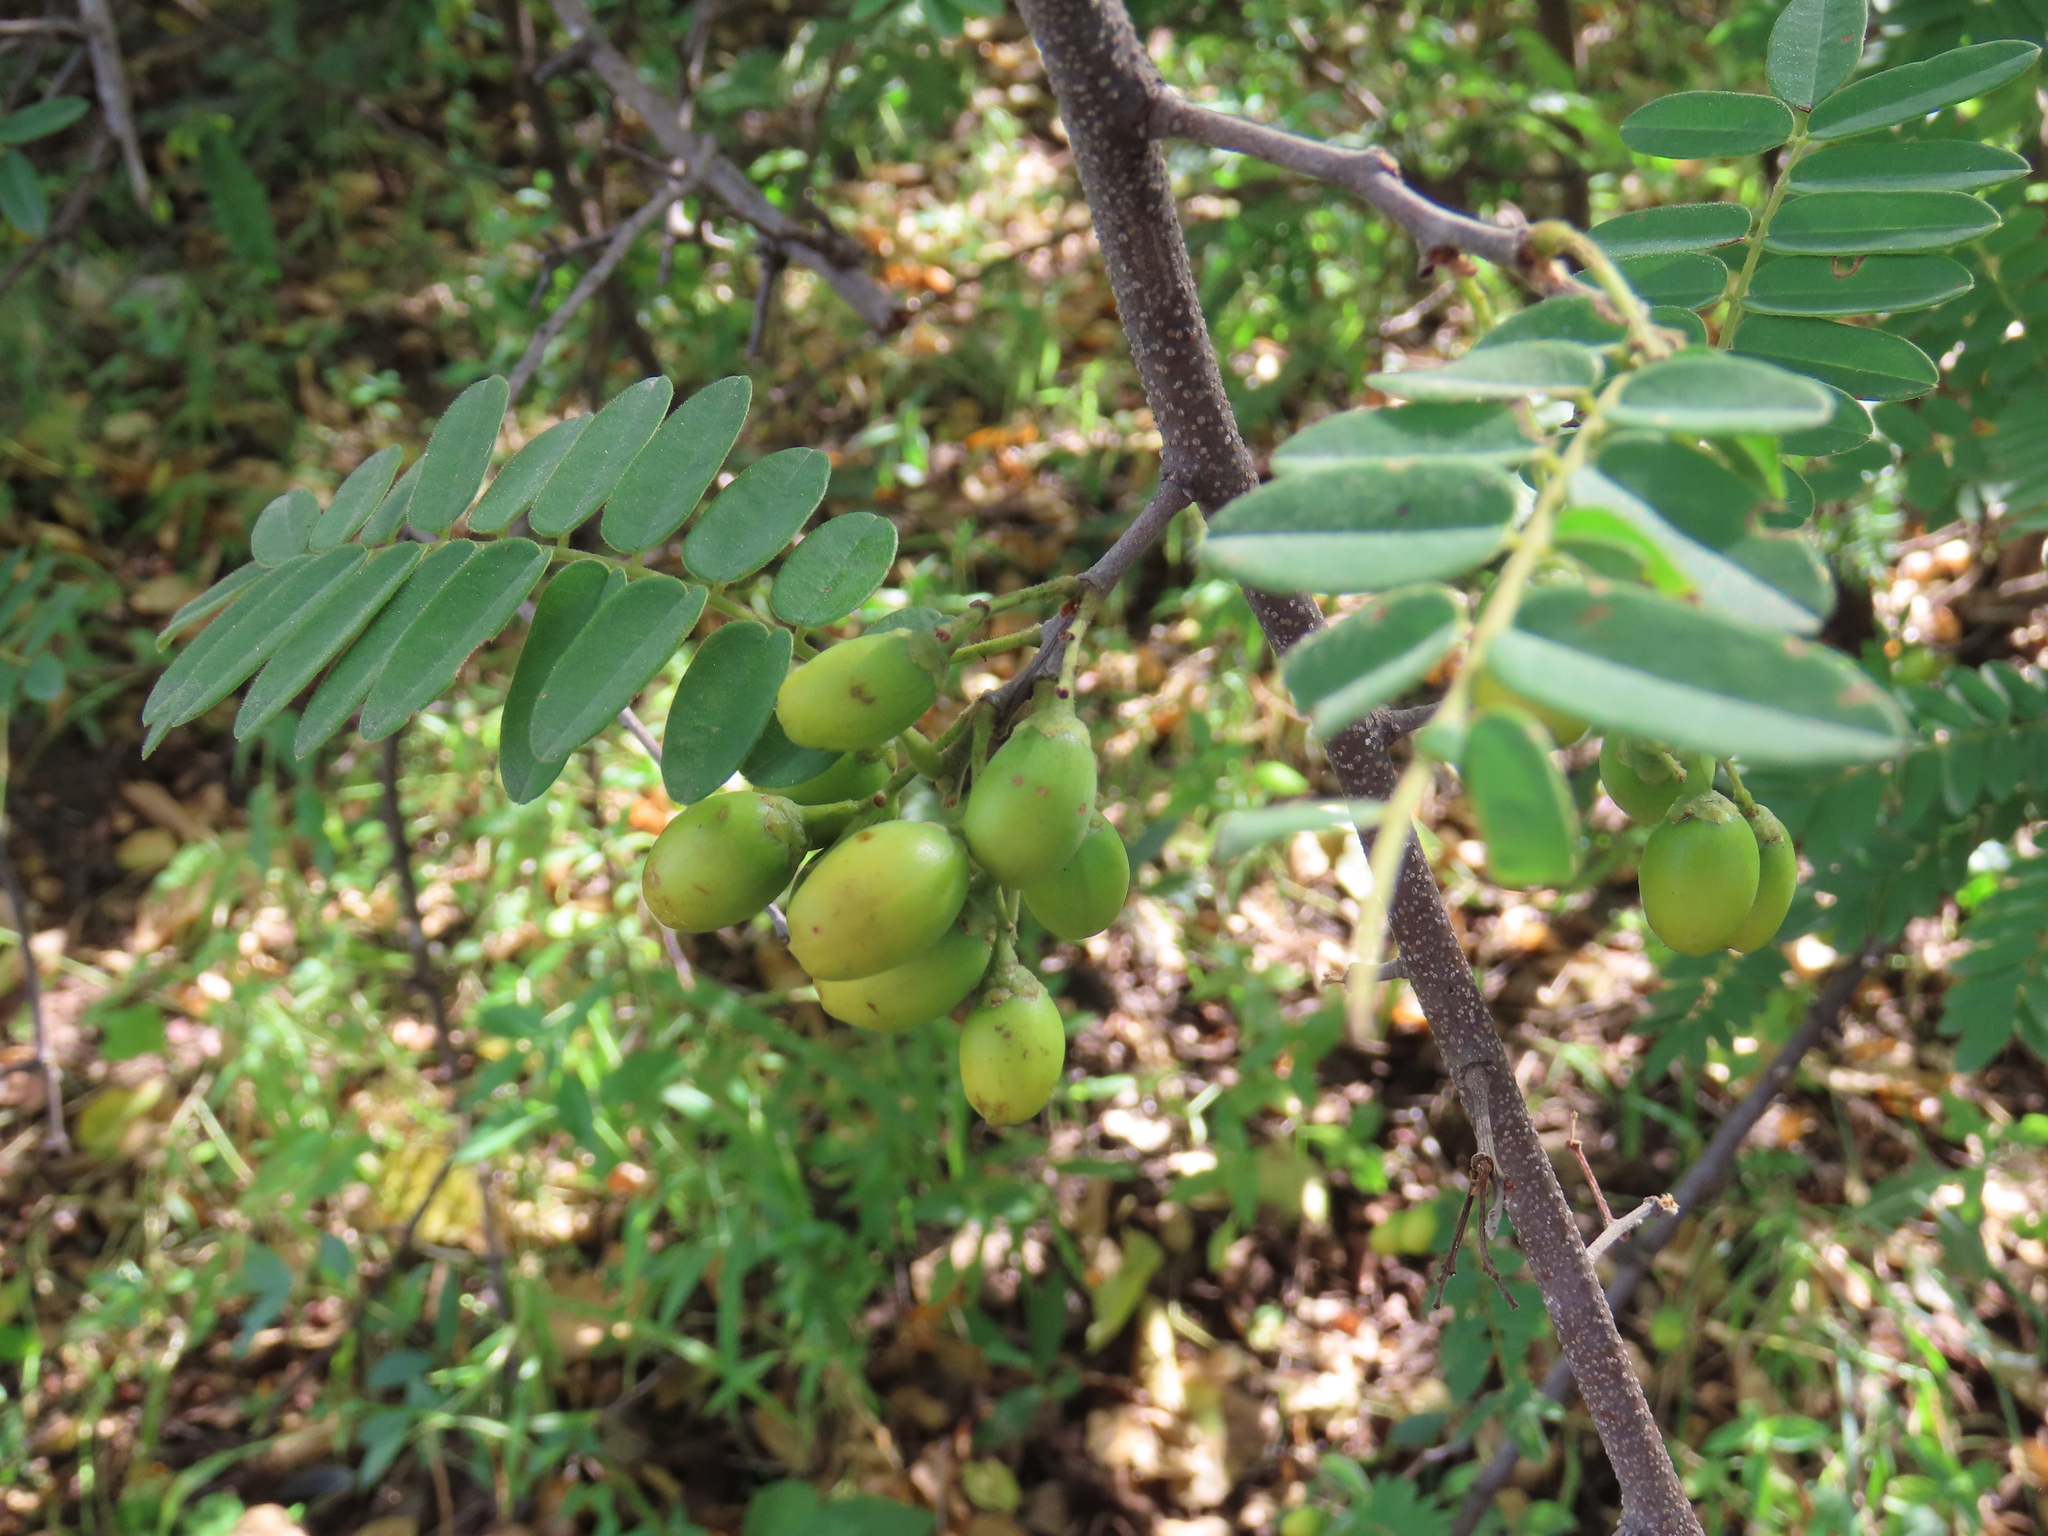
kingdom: Plantae
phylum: Tracheophyta
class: Magnoliopsida
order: Oxalidales
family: Connaraceae
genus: Rourea
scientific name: Rourea orientalis
